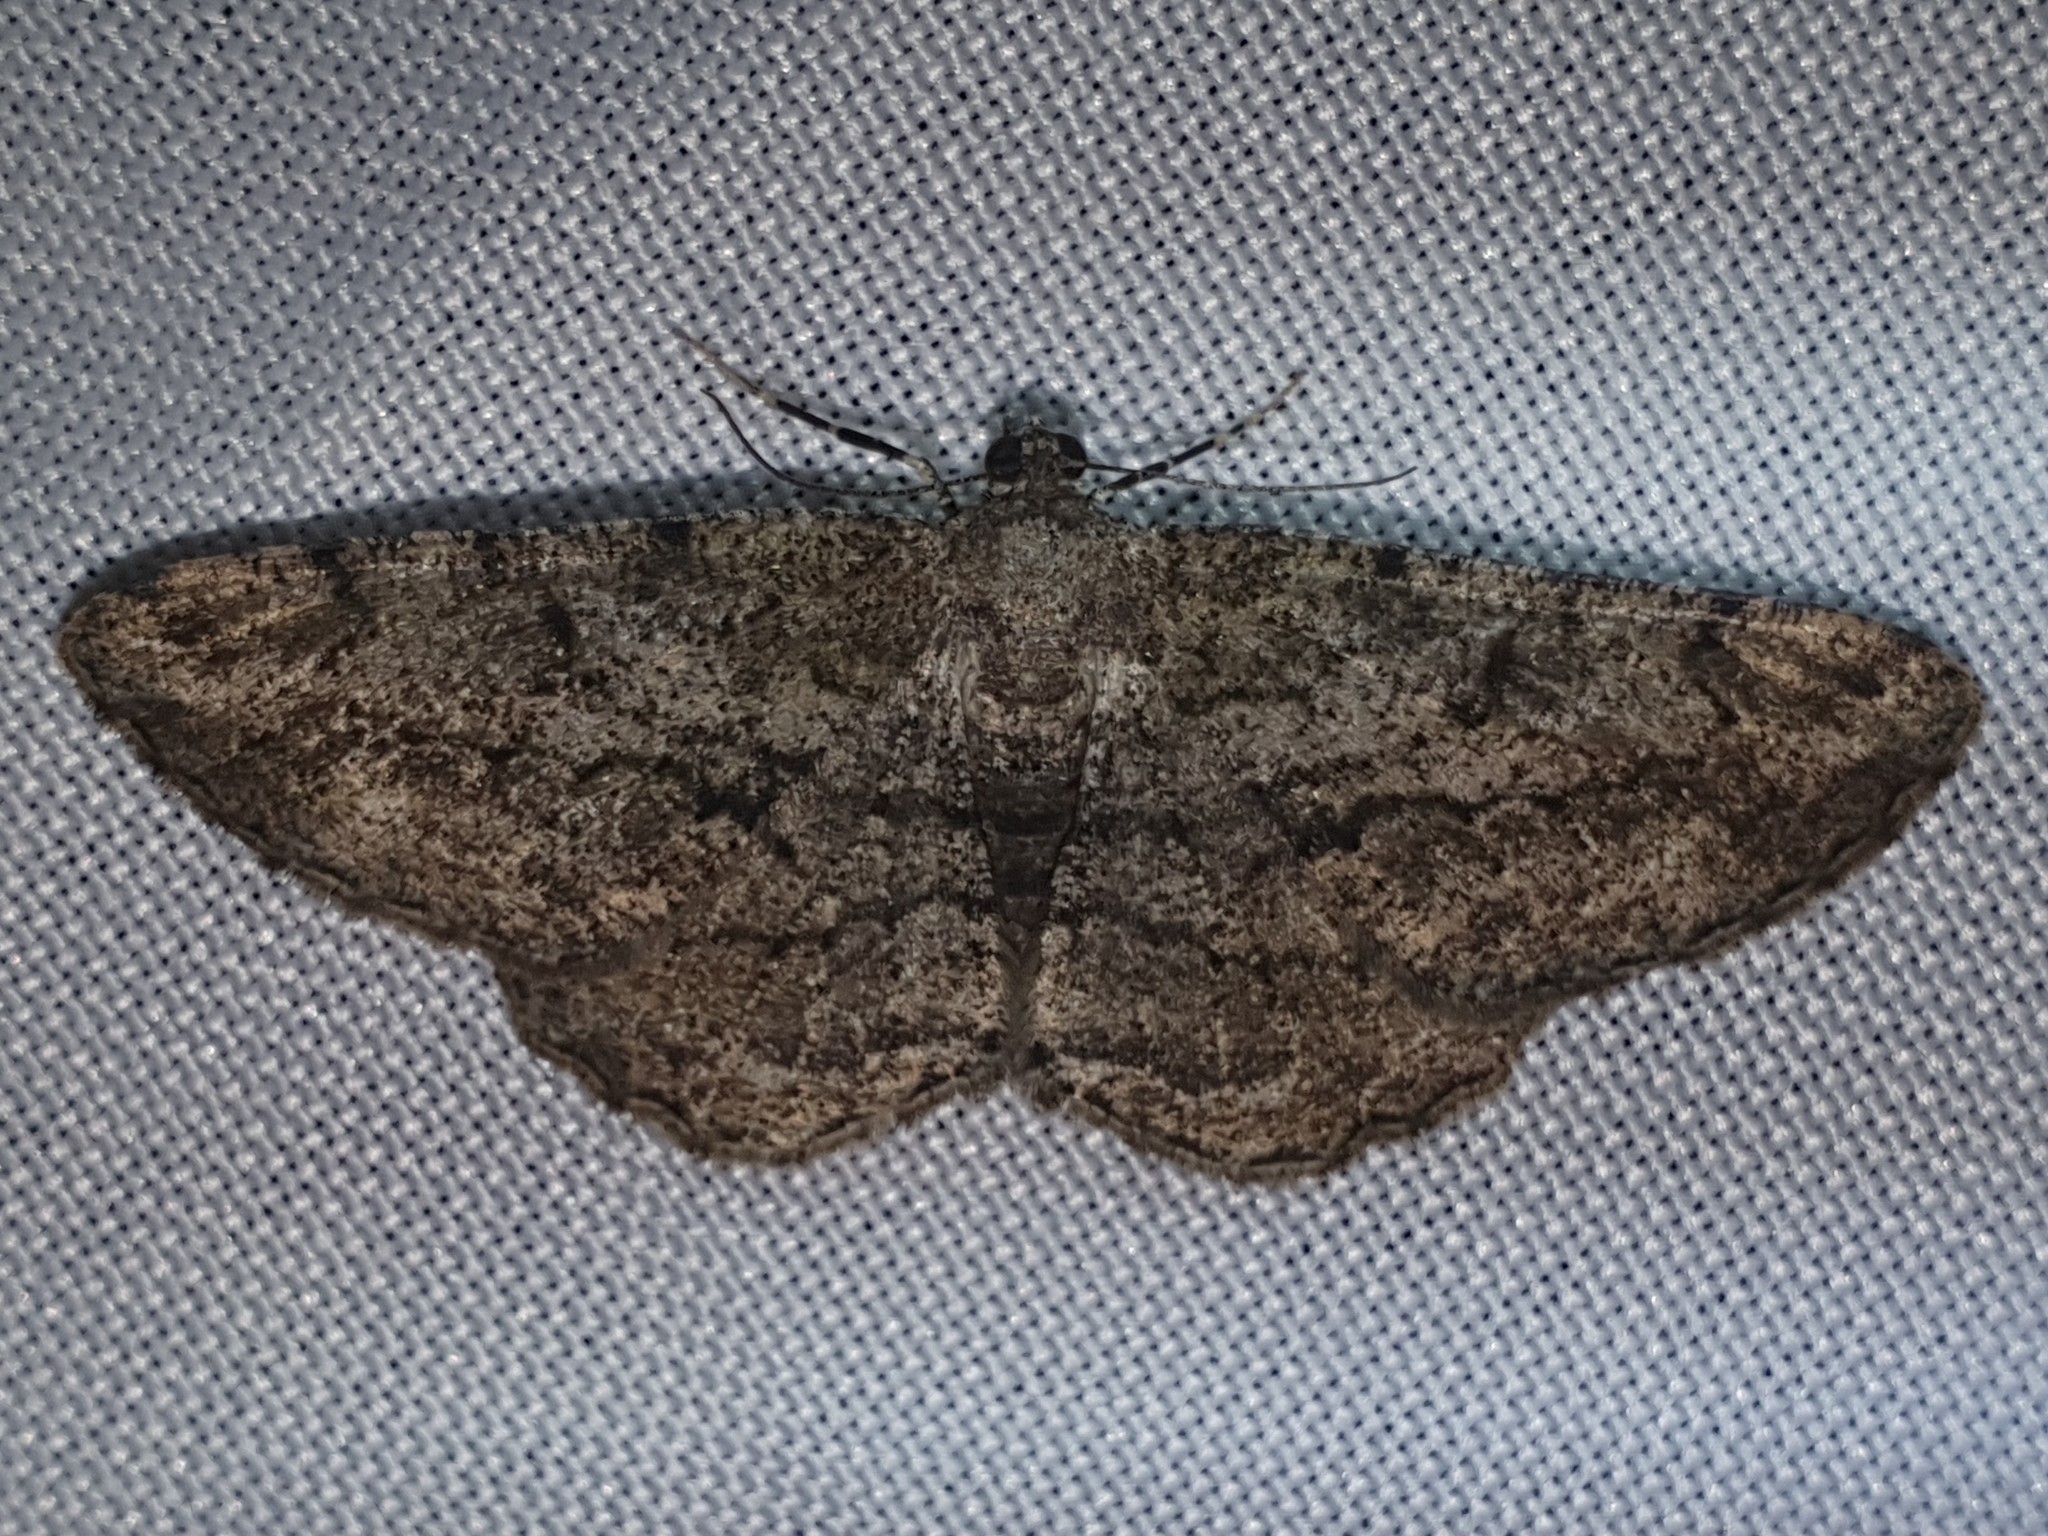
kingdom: Animalia
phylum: Arthropoda
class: Insecta
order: Lepidoptera
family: Geometridae
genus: Peribatodes
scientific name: Peribatodes rhomboidaria
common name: Willow beauty
